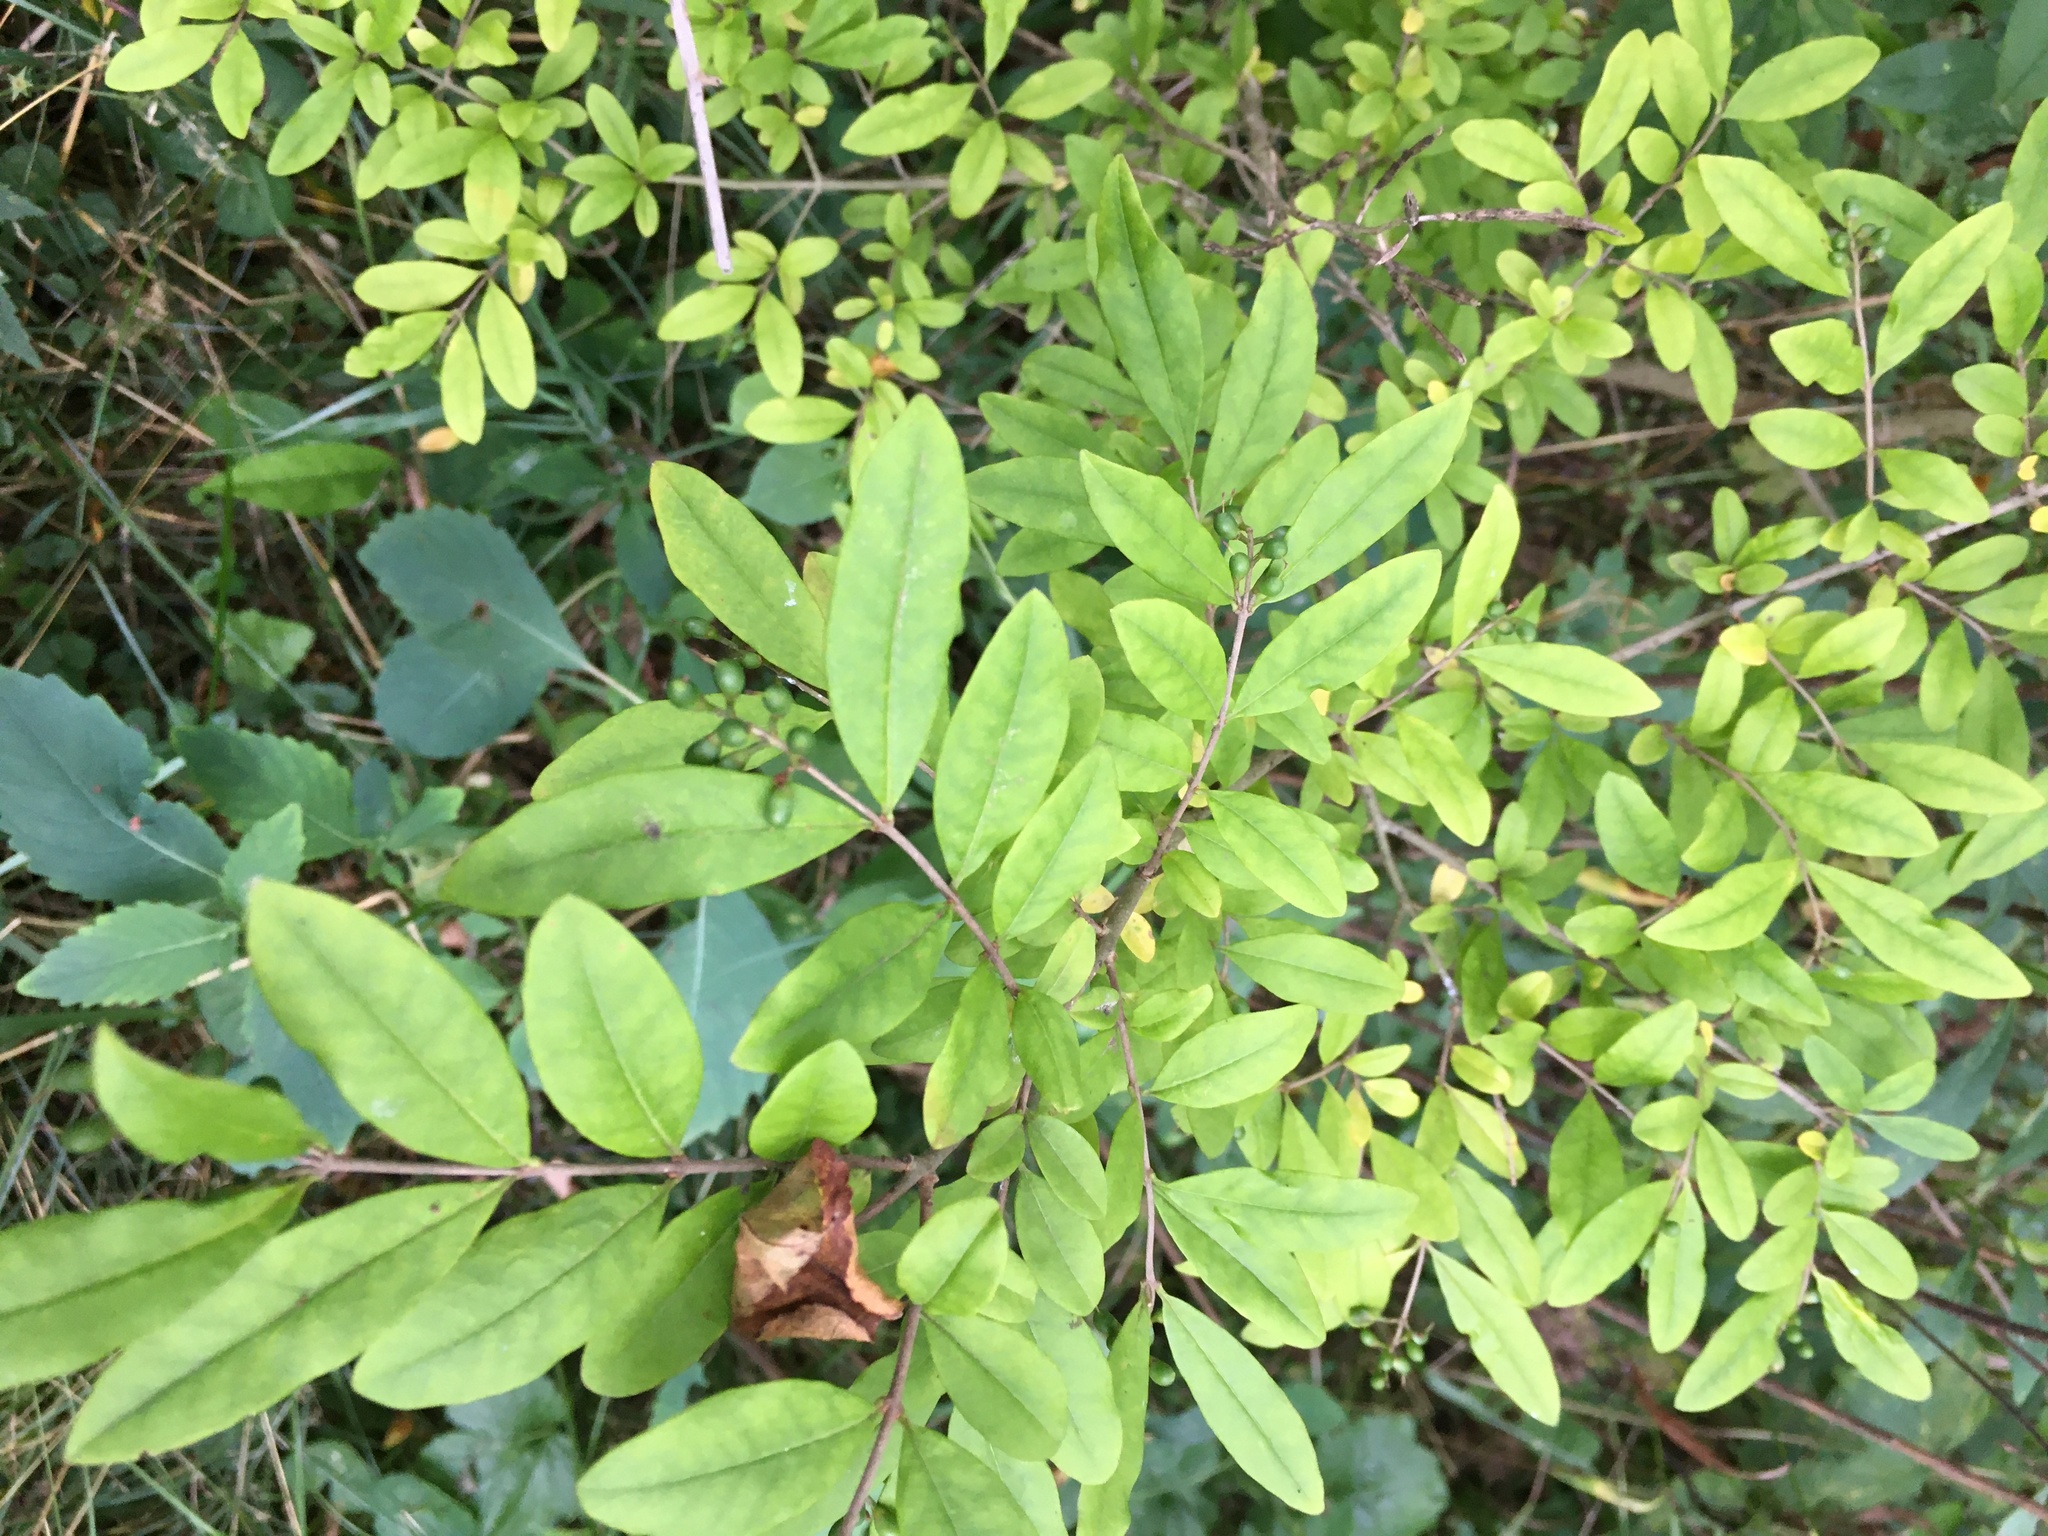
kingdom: Plantae
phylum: Tracheophyta
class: Magnoliopsida
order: Lamiales
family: Oleaceae
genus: Ligustrum
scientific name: Ligustrum obtusifolium
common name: Border privet
